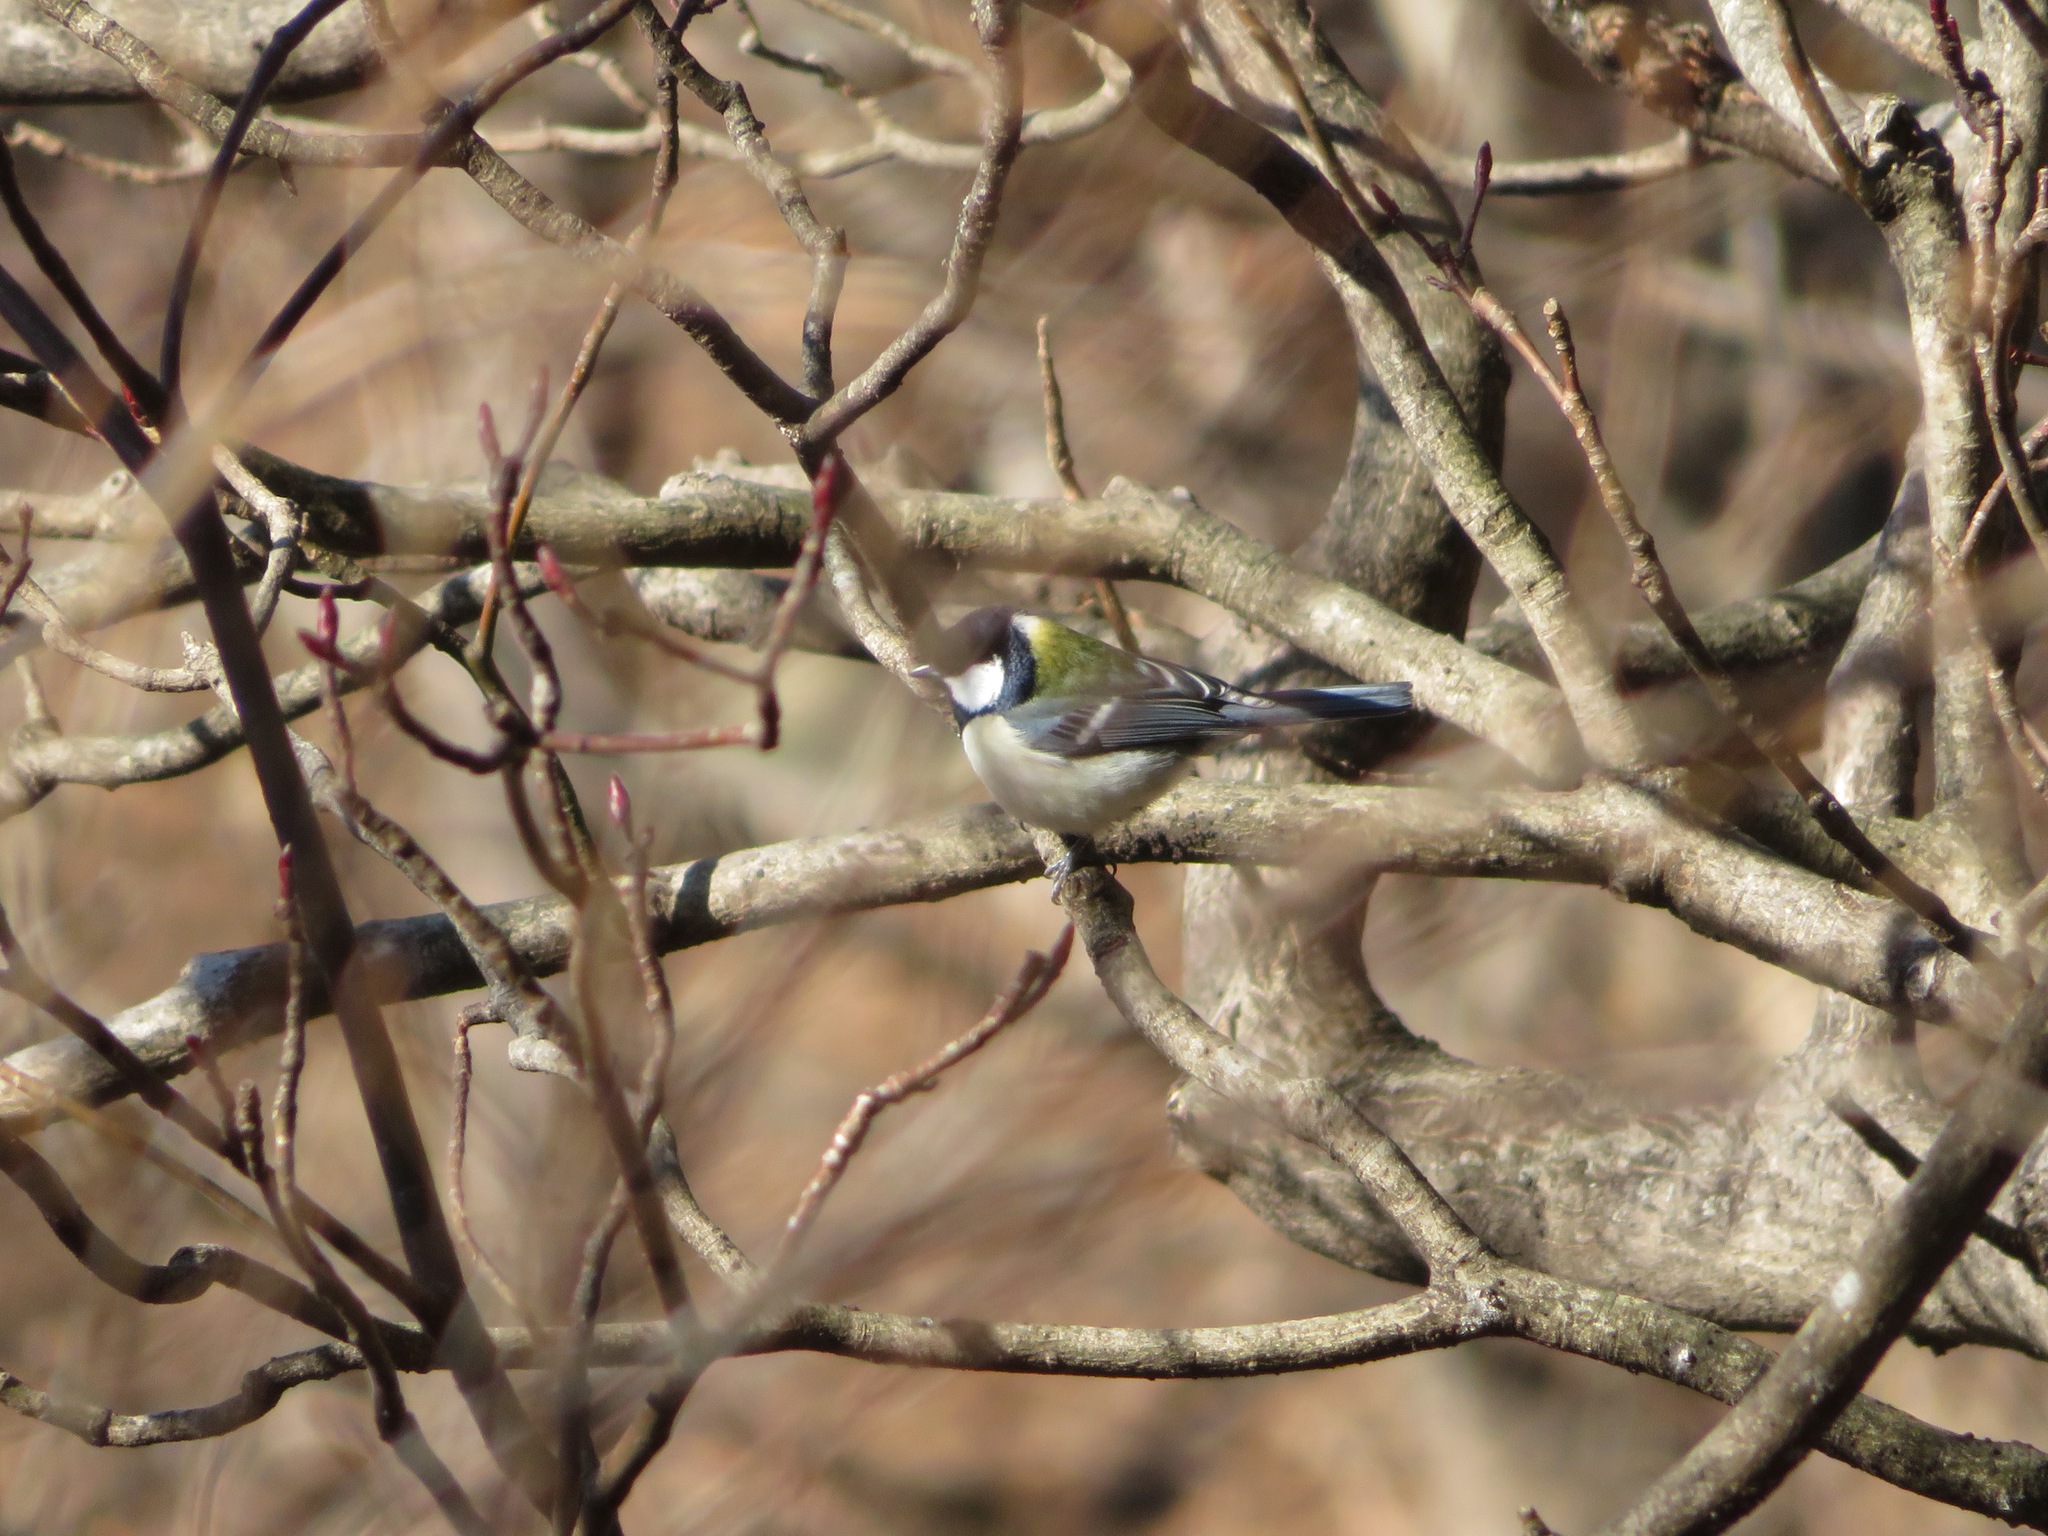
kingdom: Animalia
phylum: Chordata
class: Aves
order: Passeriformes
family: Paridae
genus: Parus
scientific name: Parus minor
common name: Japanese tit
